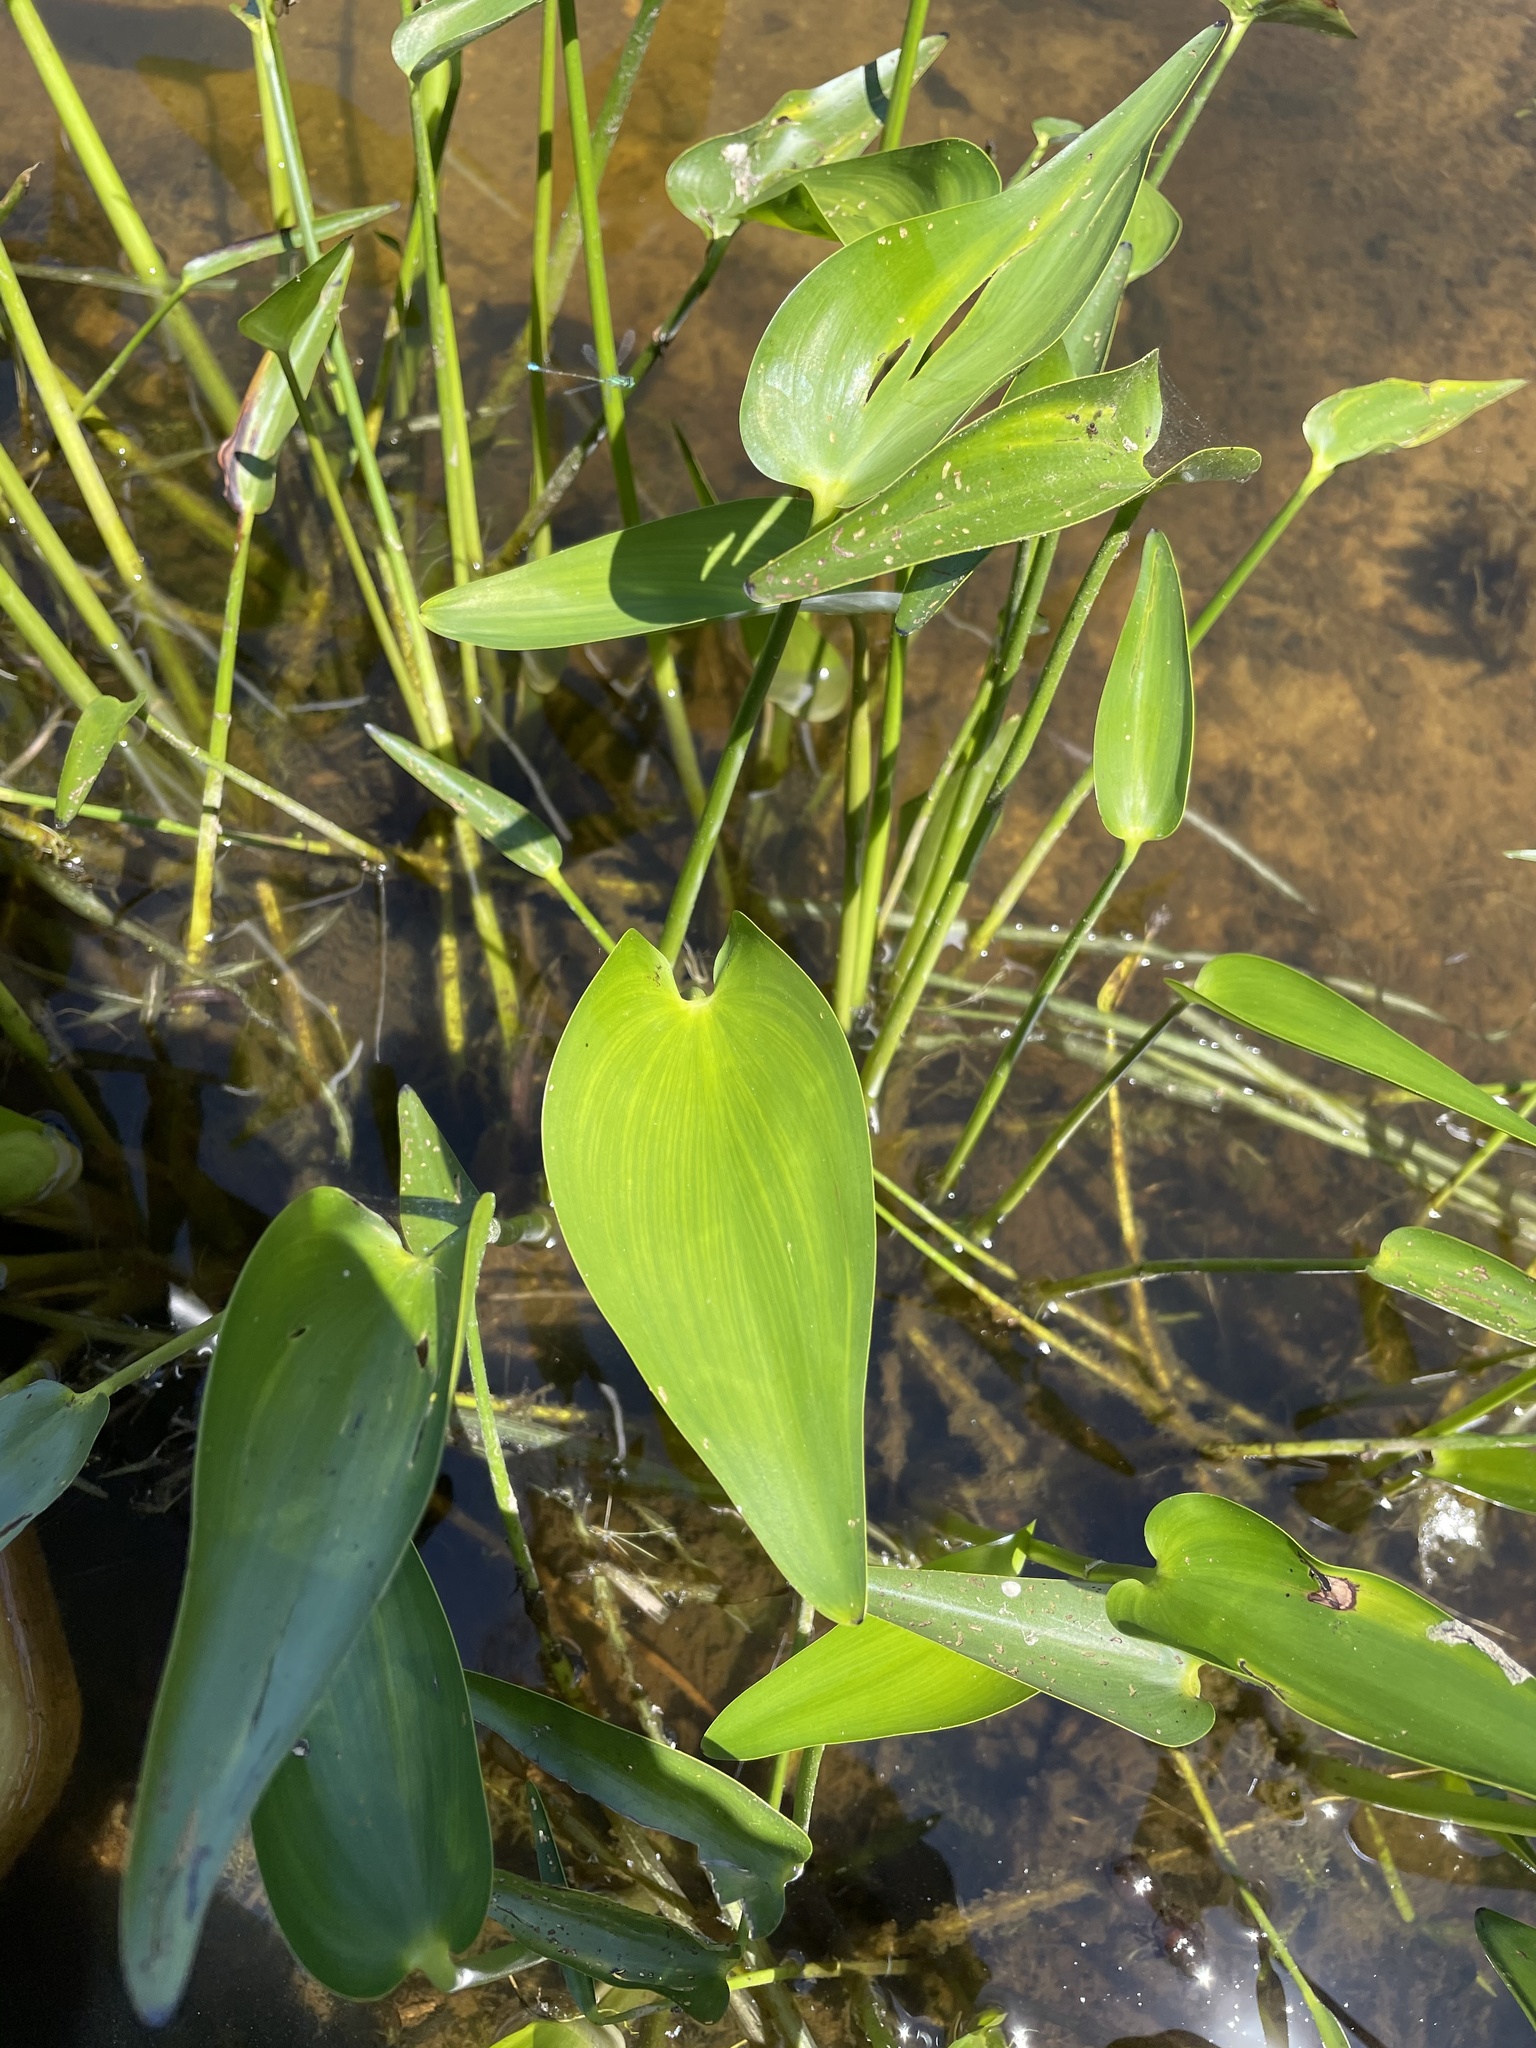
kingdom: Plantae
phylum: Tracheophyta
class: Liliopsida
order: Commelinales
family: Pontederiaceae
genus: Pontederia
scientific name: Pontederia cordata
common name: Pickerelweed
